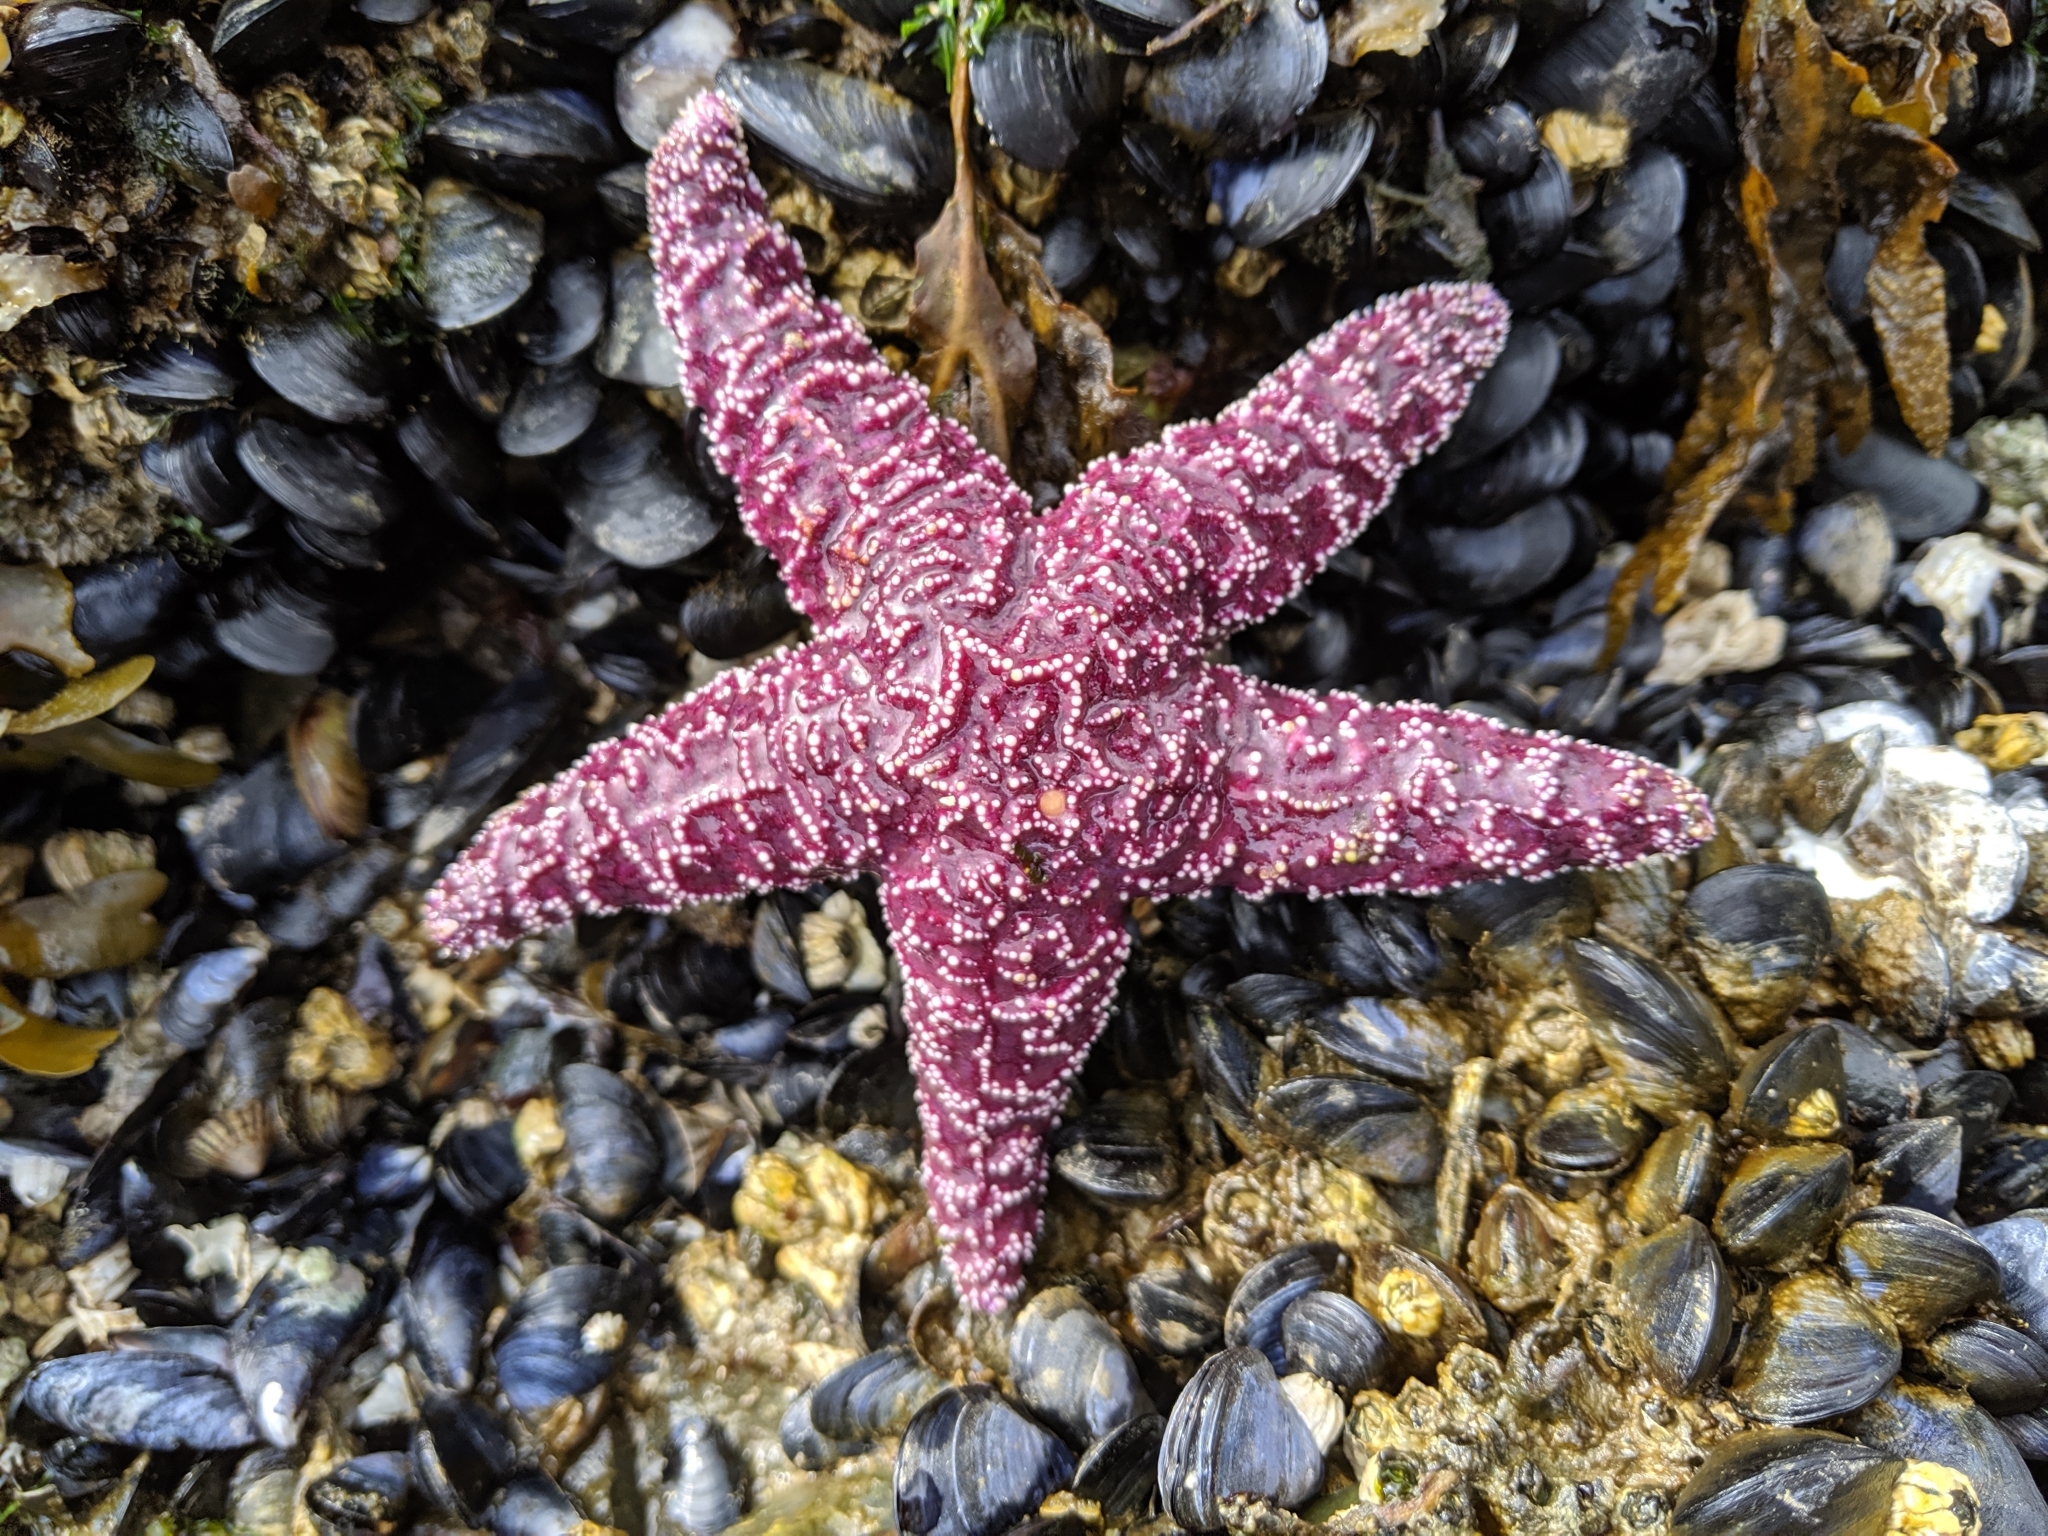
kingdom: Animalia
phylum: Echinodermata
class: Asteroidea
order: Forcipulatida
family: Asteriidae
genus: Pisaster
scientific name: Pisaster ochraceus
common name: Ochre stars
